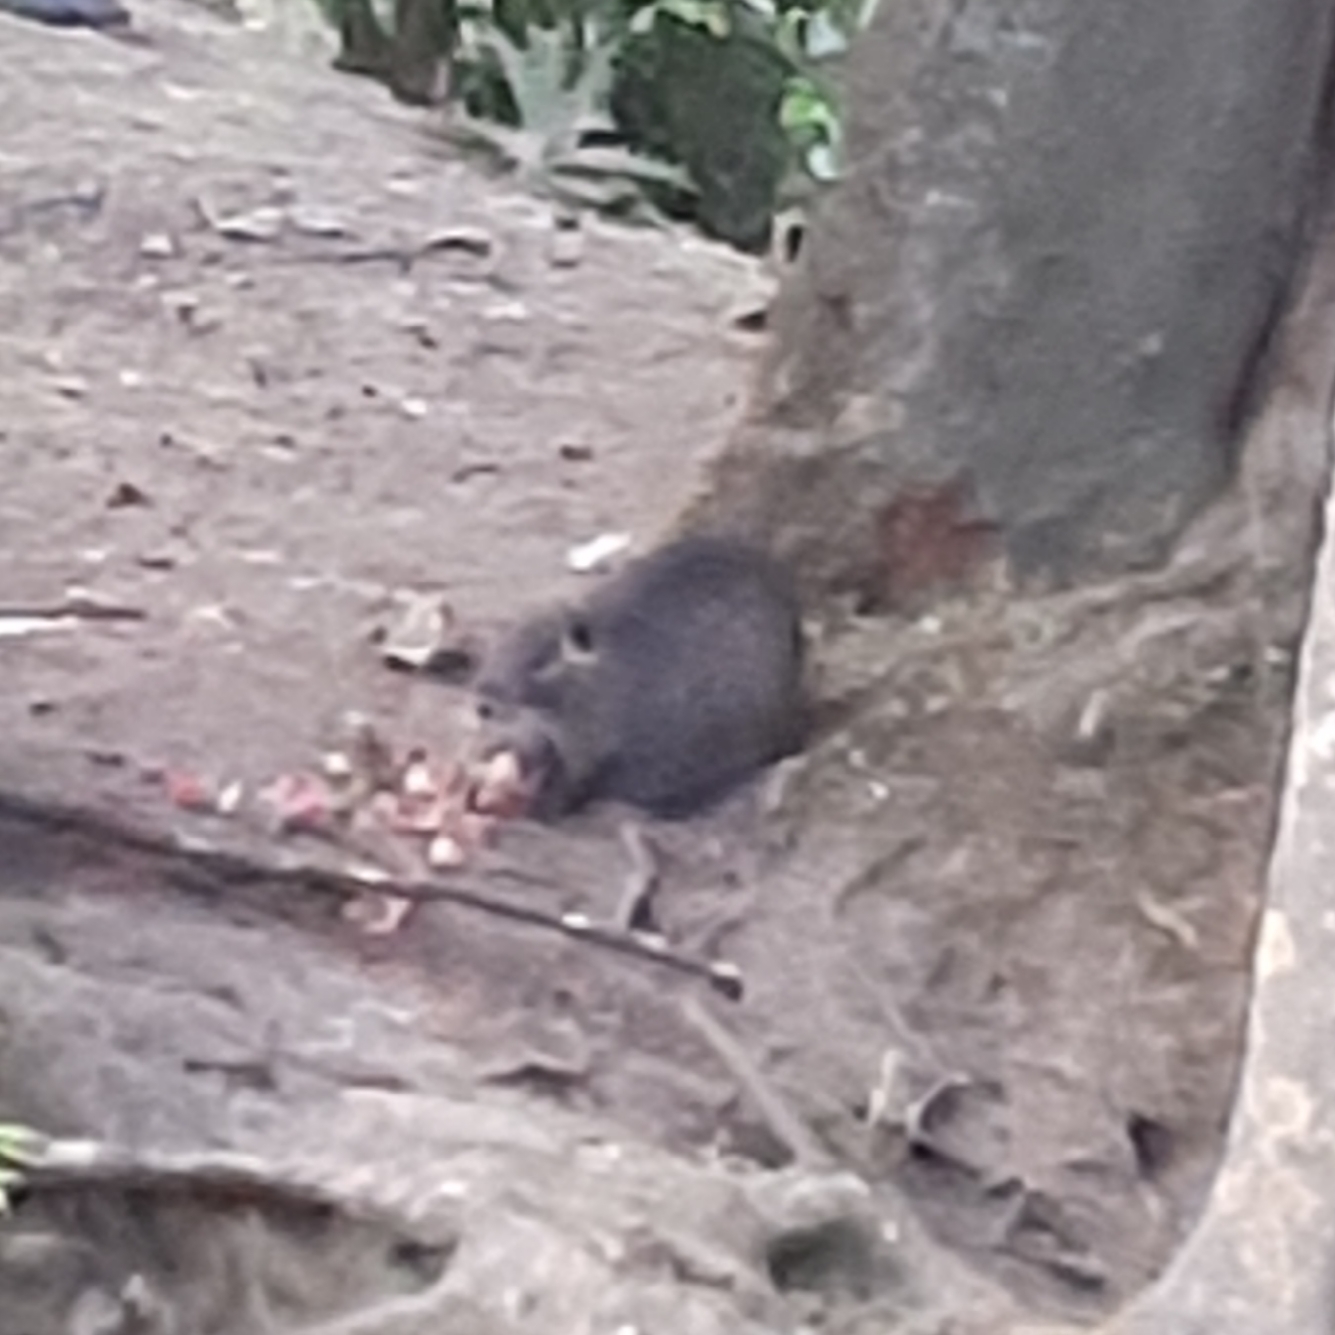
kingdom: Animalia
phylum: Chordata
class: Mammalia
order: Rodentia
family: Myocastoridae
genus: Myocastor
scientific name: Myocastor coypus
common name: Coypu
